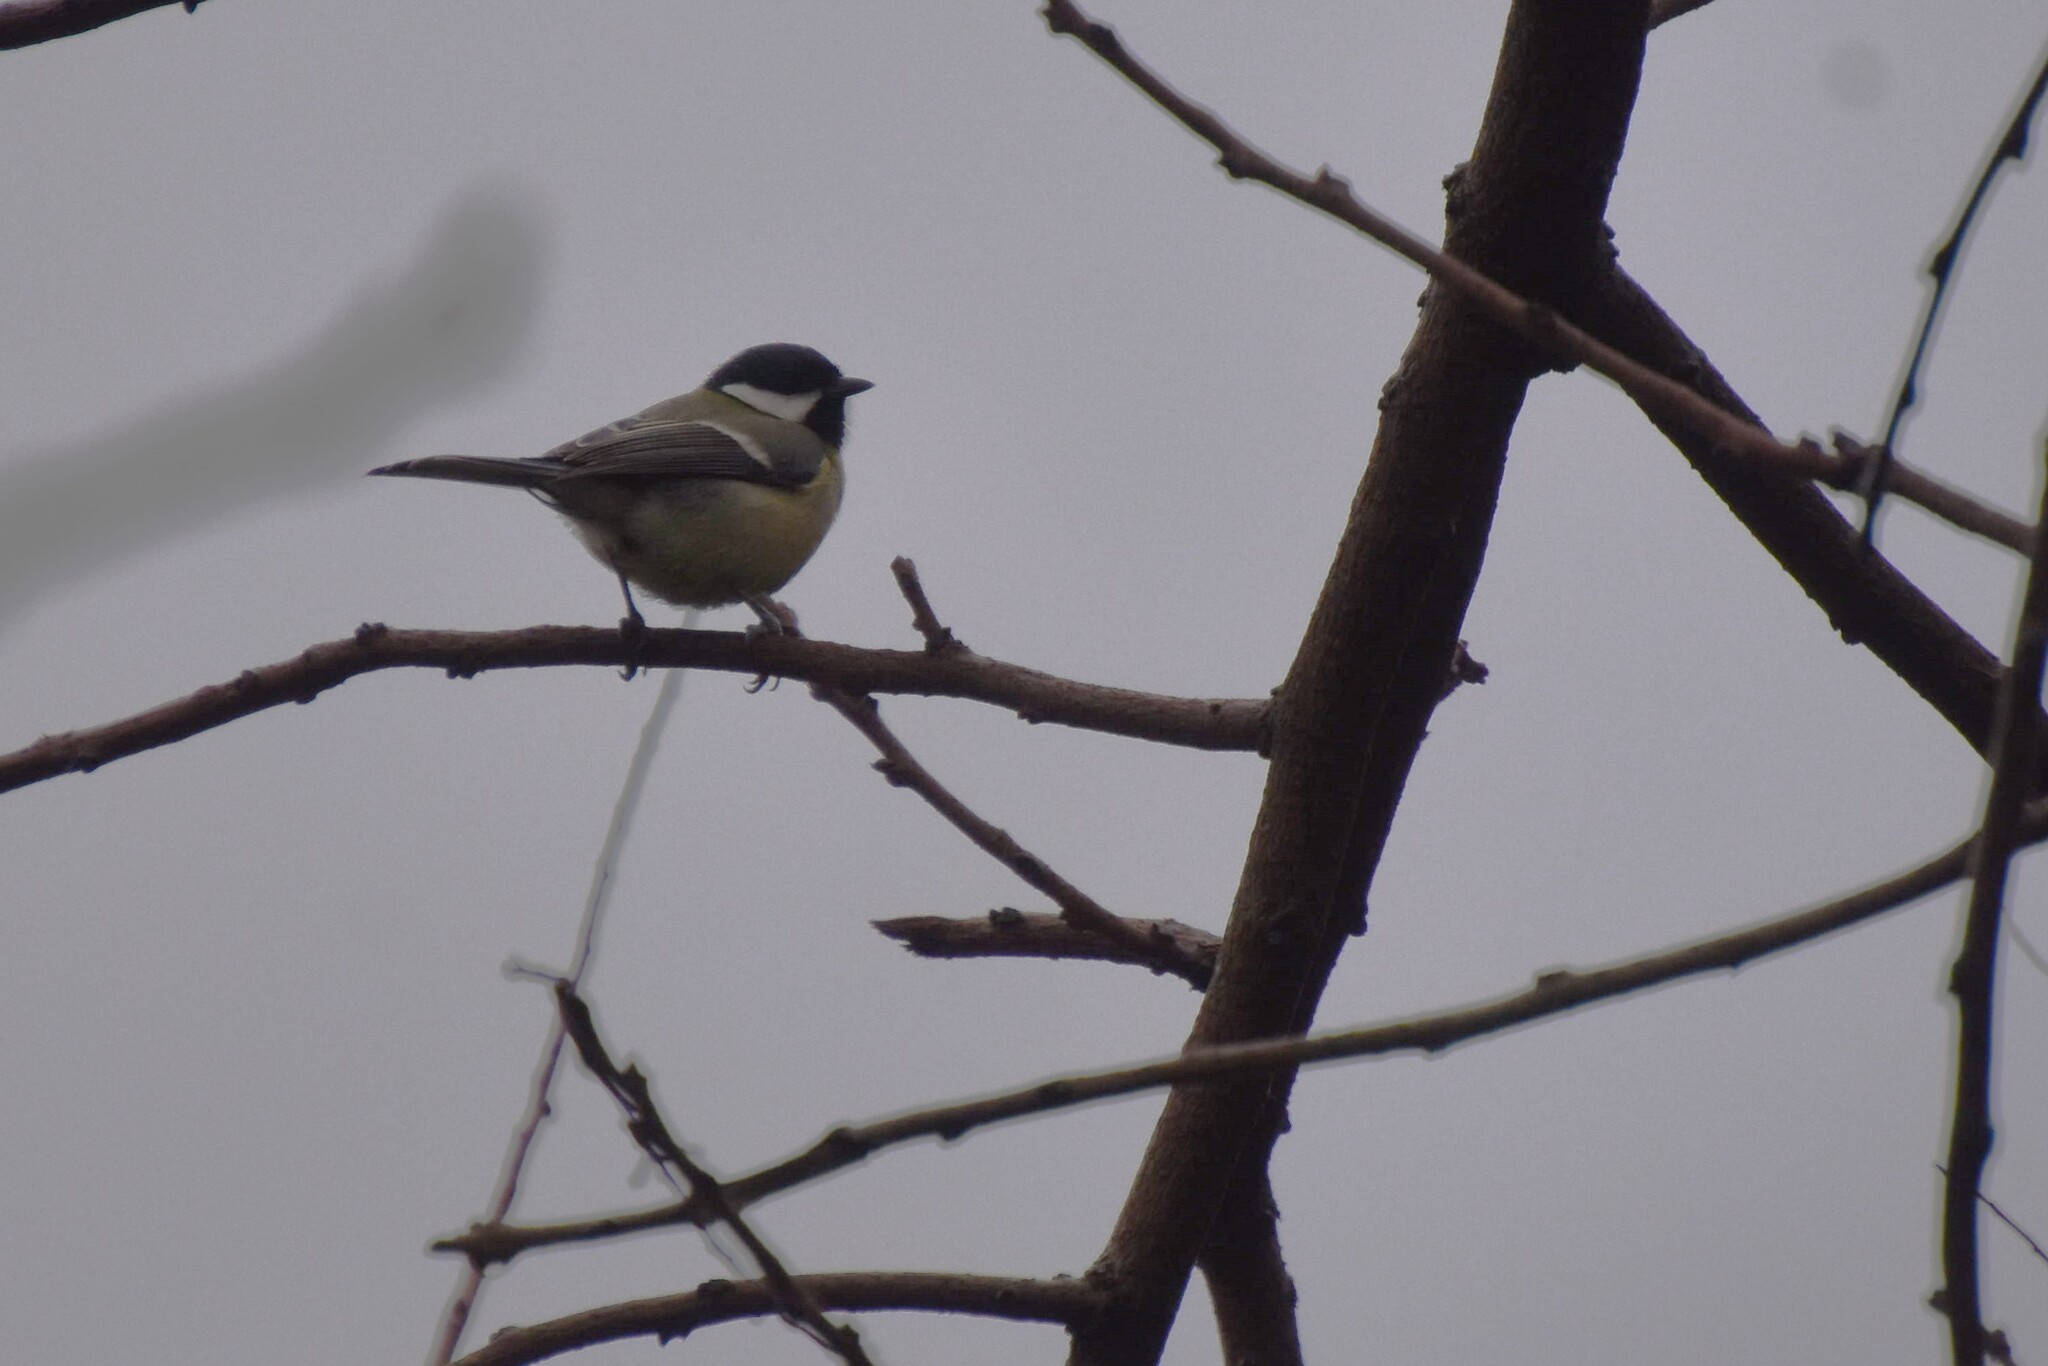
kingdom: Animalia
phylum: Chordata
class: Aves
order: Passeriformes
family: Paridae
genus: Parus
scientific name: Parus major
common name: Great tit
